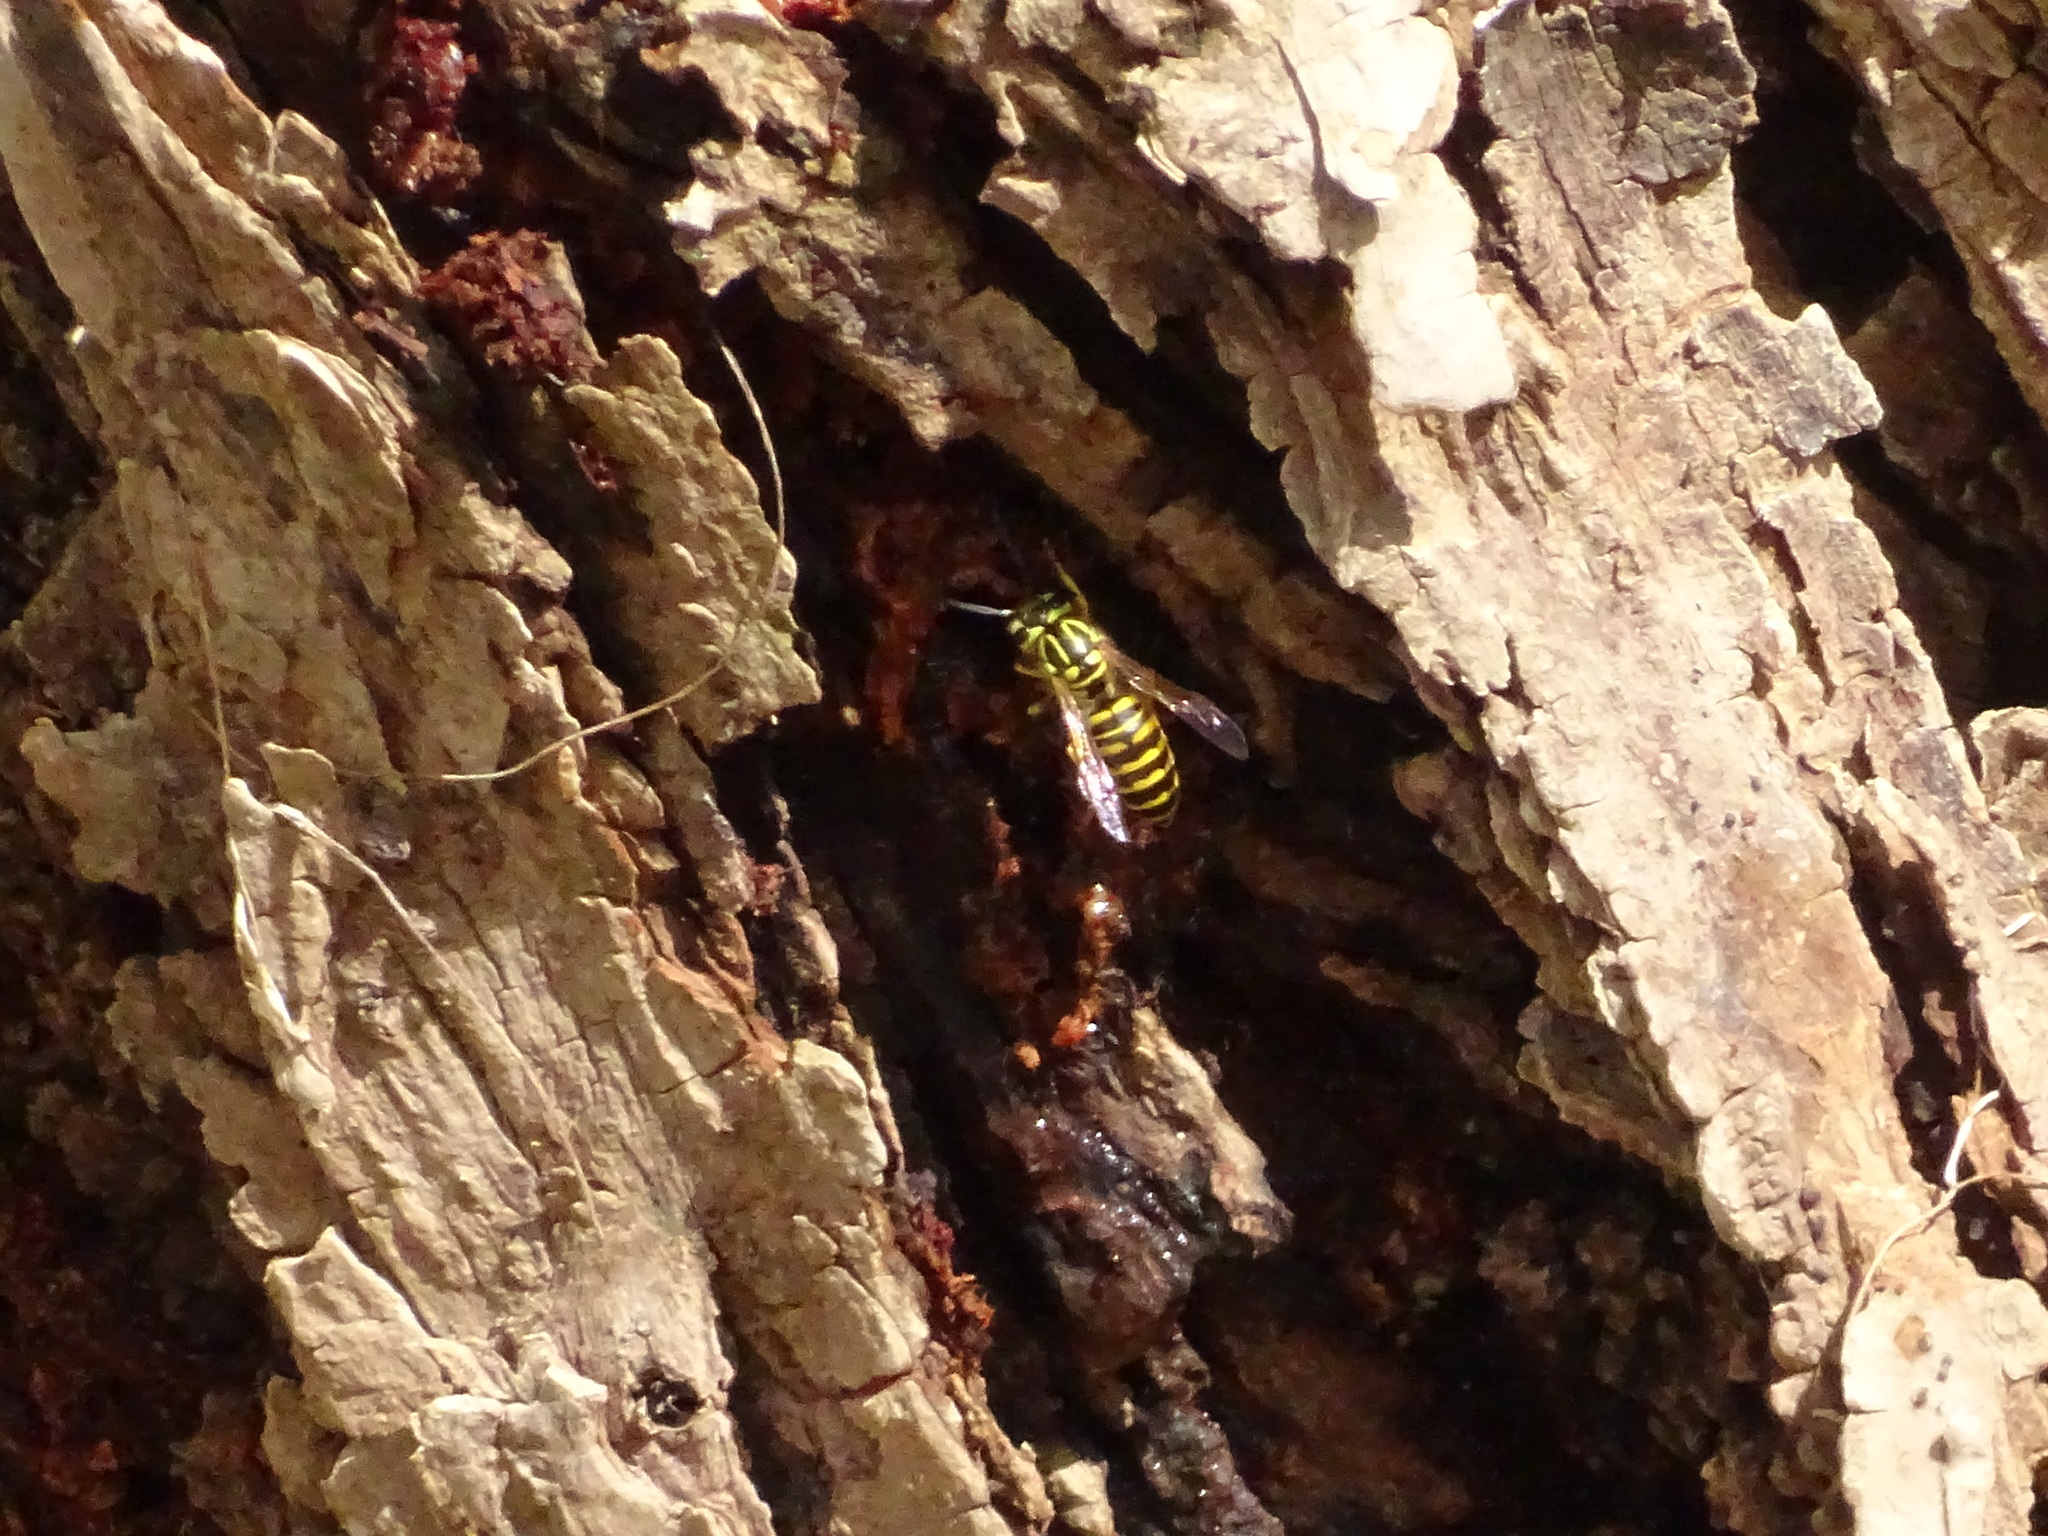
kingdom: Animalia
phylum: Arthropoda
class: Insecta
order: Hymenoptera
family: Vespidae
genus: Vespula
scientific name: Vespula squamosa
